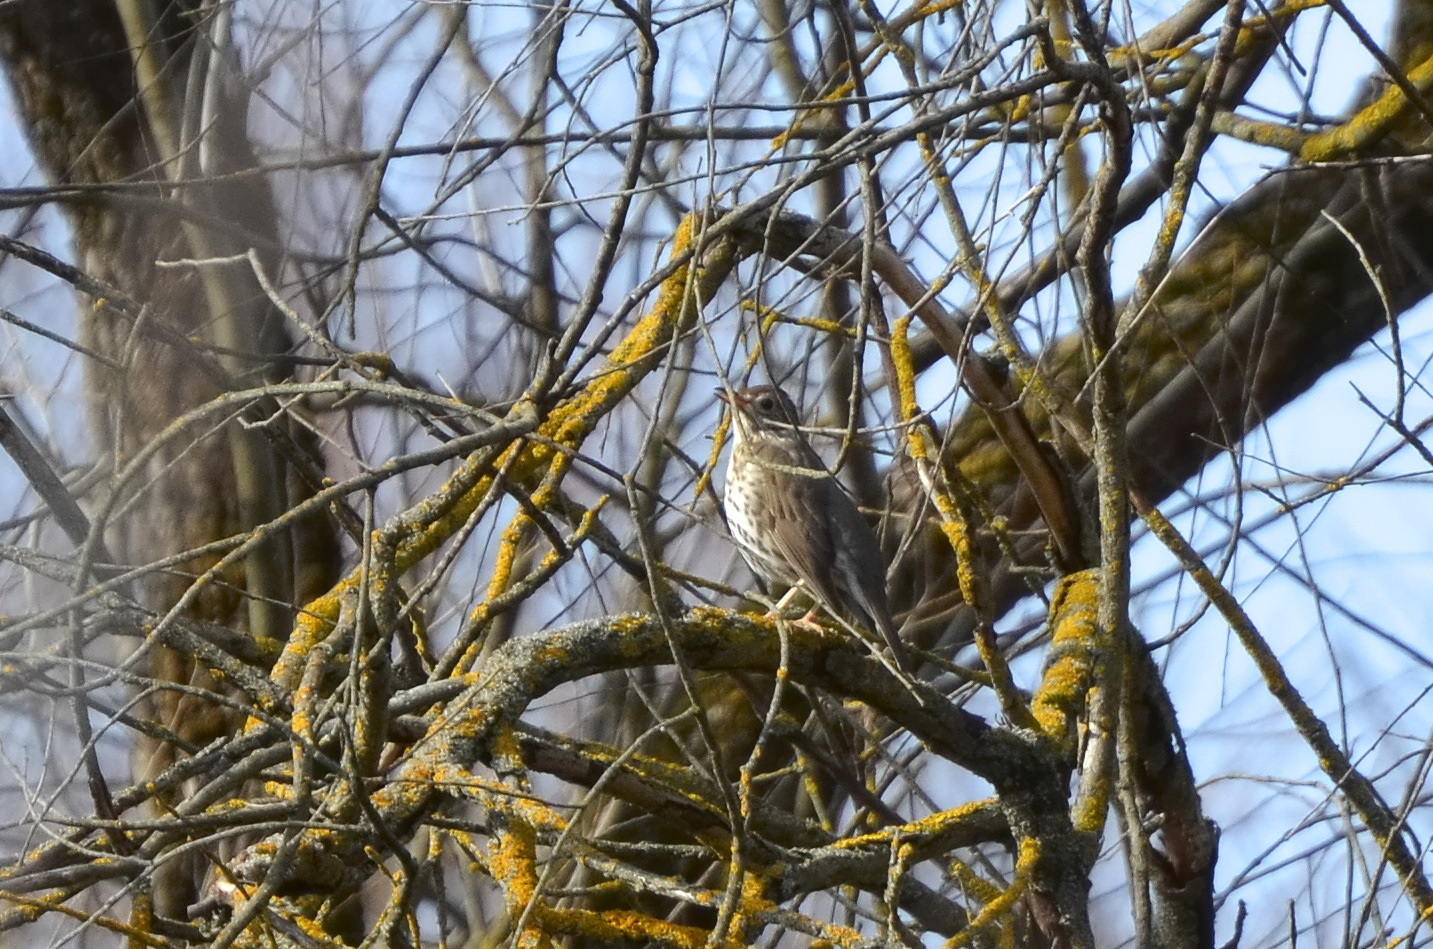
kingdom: Animalia
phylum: Chordata
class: Aves
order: Passeriformes
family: Turdidae
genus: Turdus
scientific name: Turdus philomelos
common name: Song thrush
